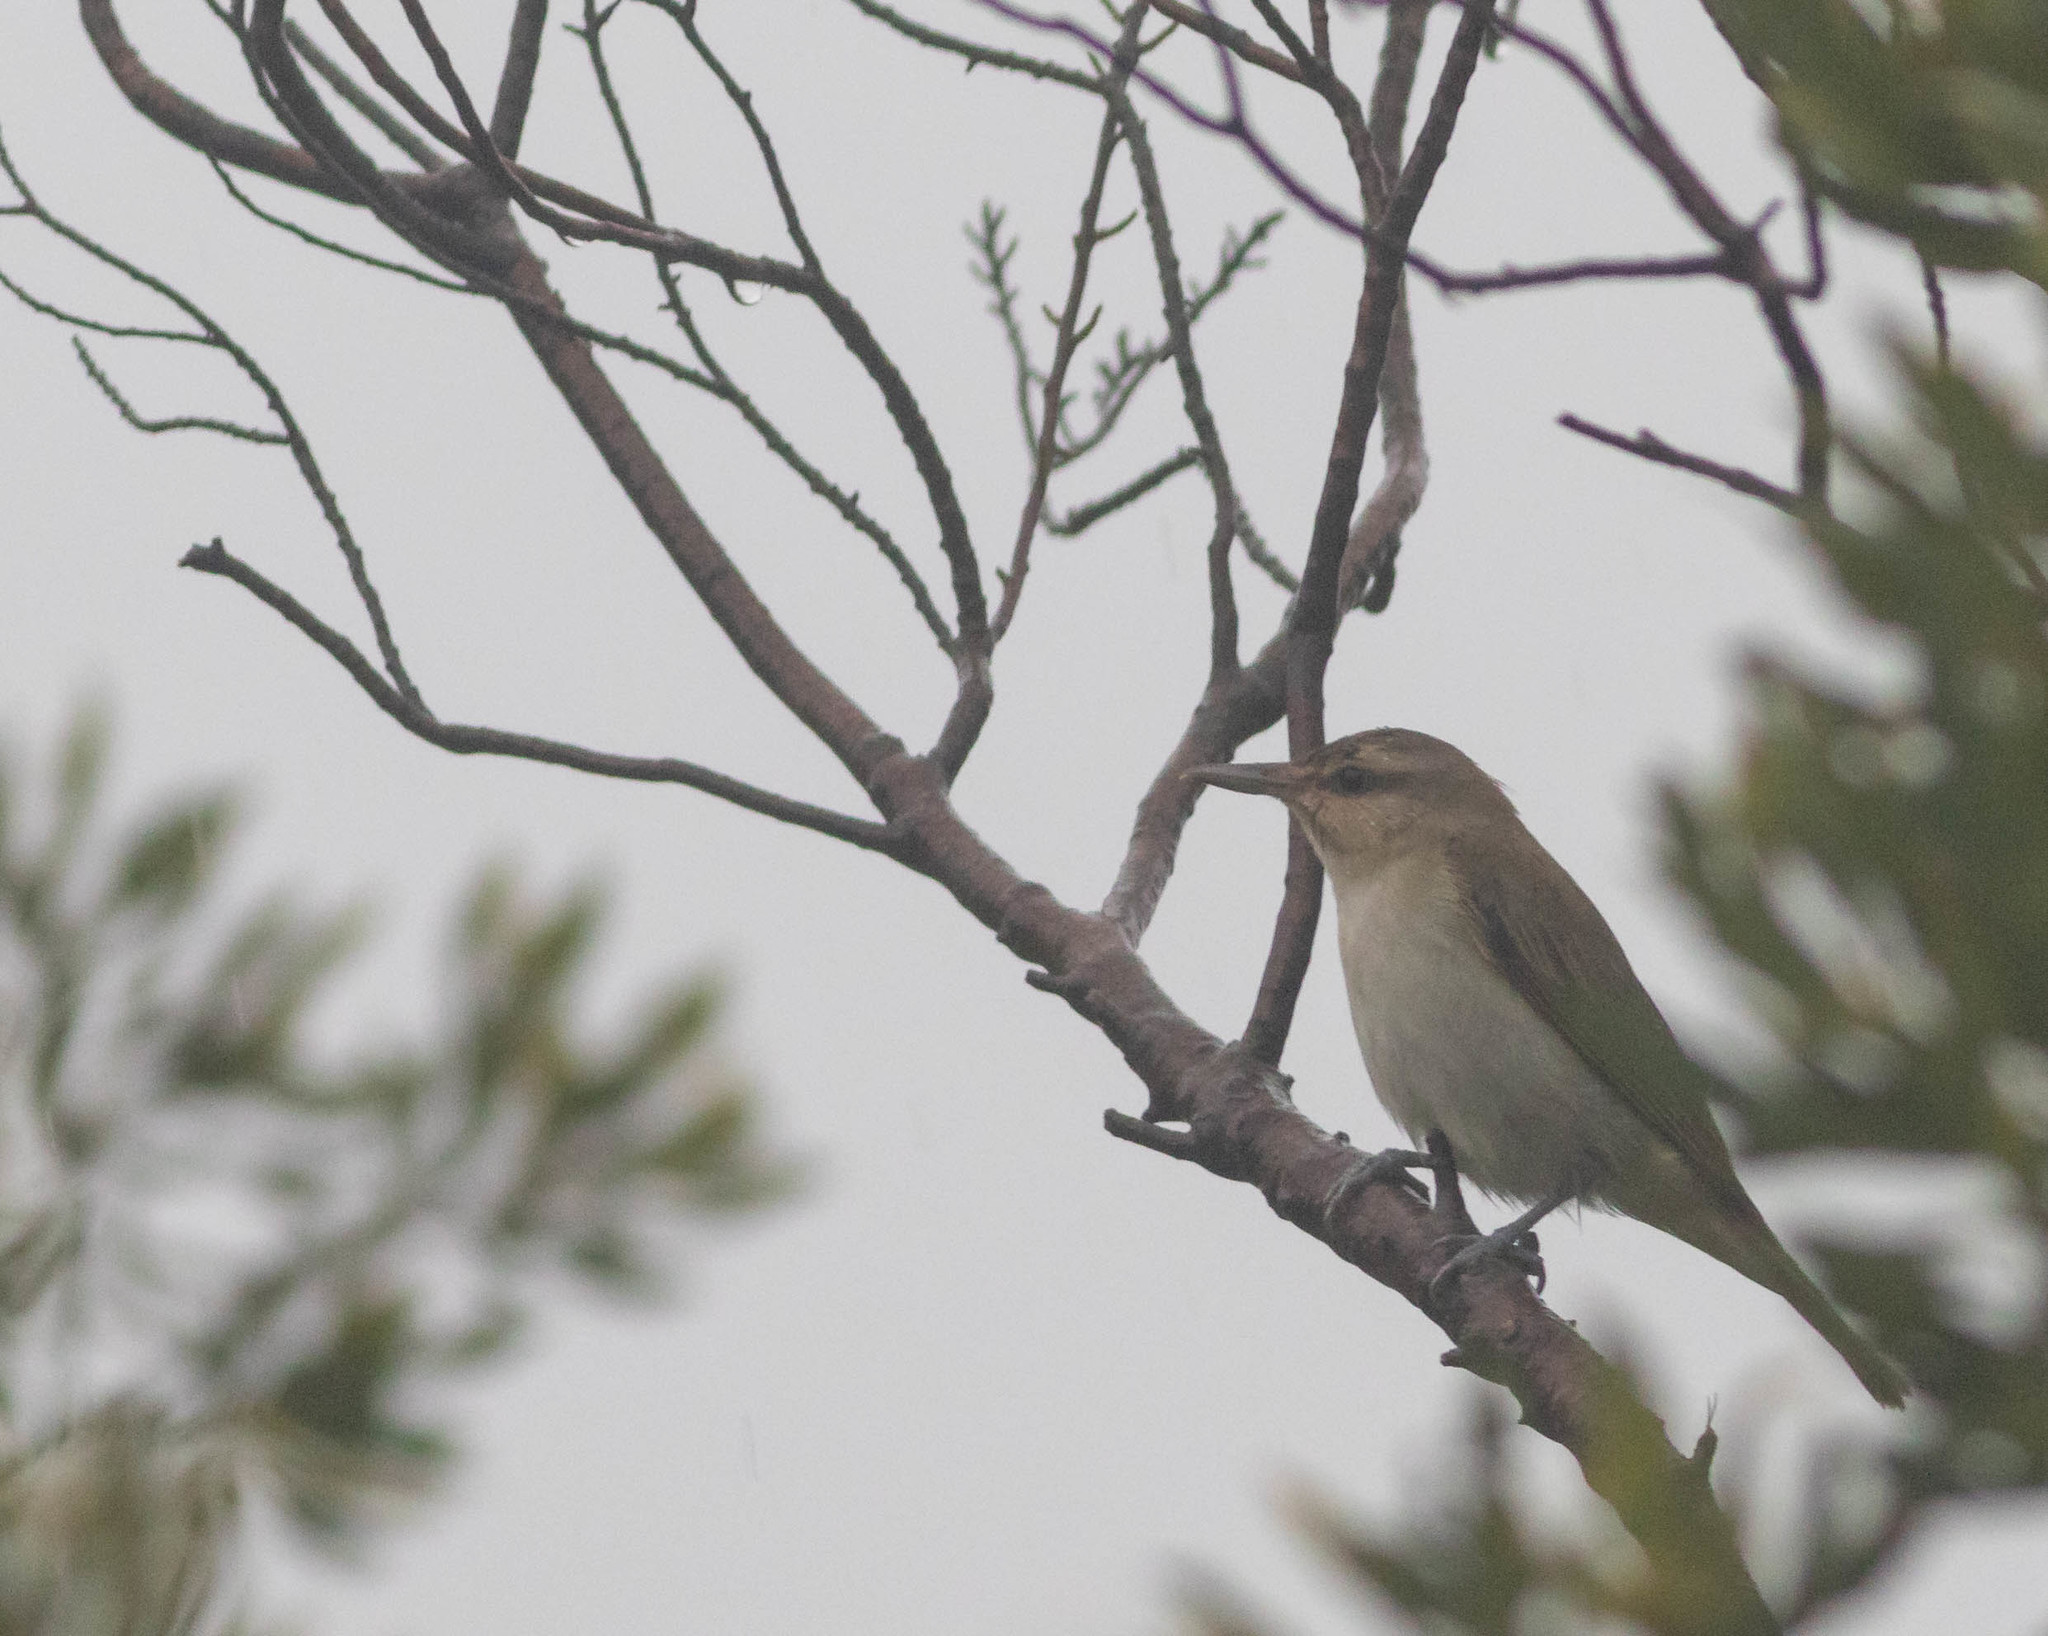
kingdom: Animalia
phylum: Chordata
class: Aves
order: Passeriformes
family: Vireonidae
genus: Vireo
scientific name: Vireo altiloquus
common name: Black-whiskered vireo
